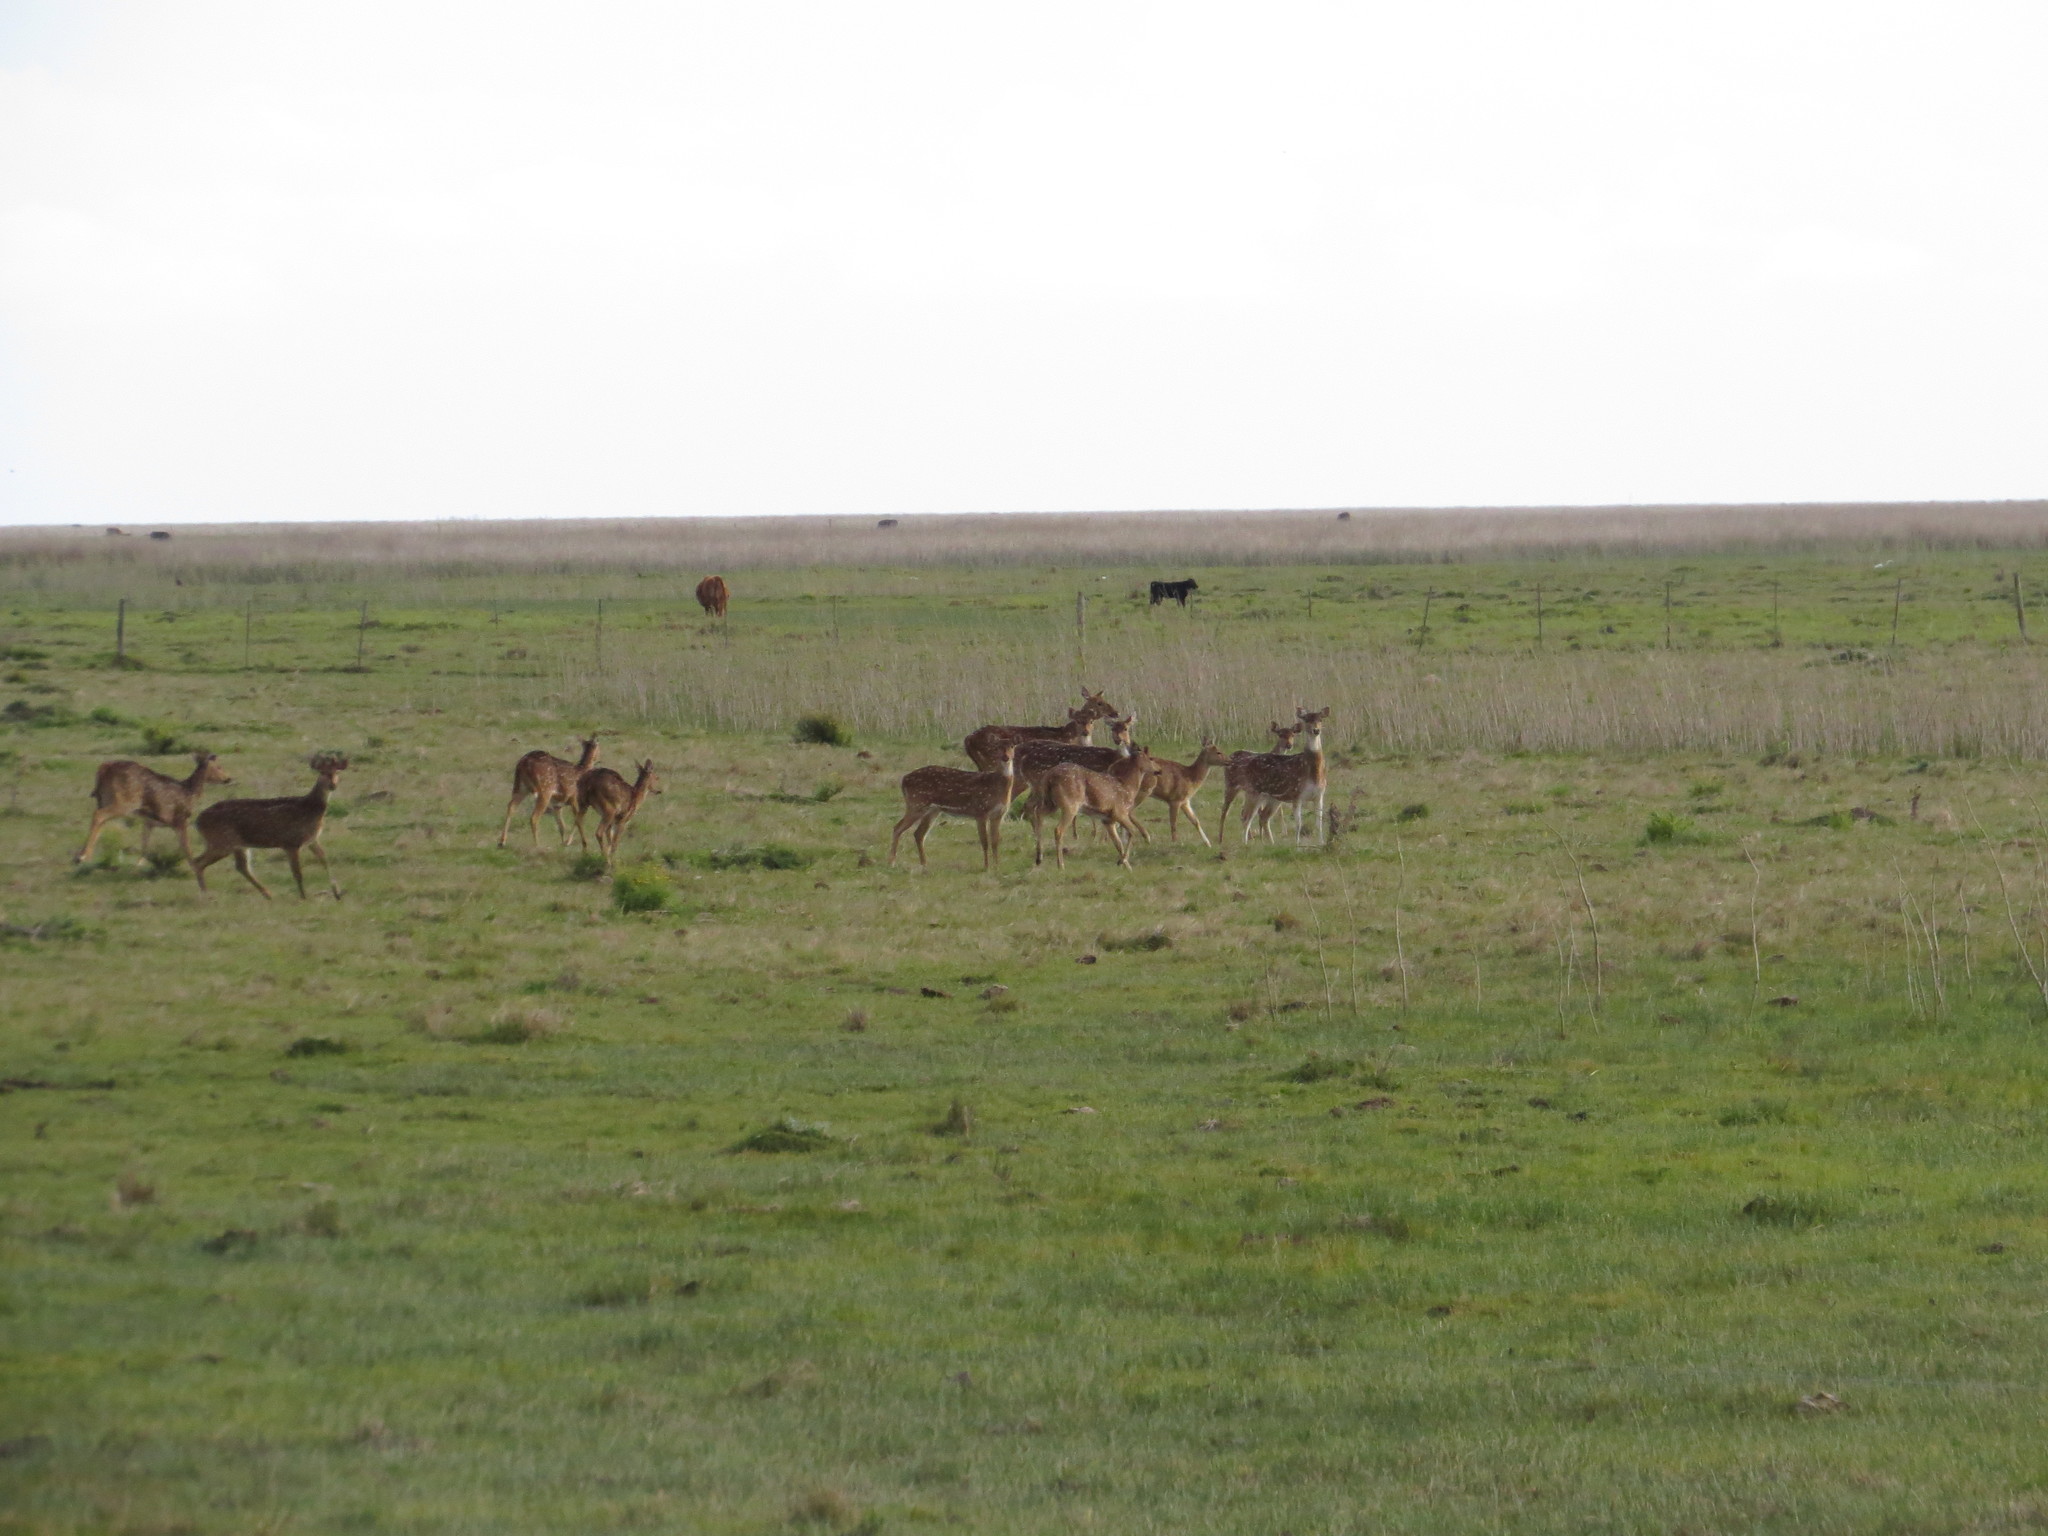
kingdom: Animalia
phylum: Chordata
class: Mammalia
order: Artiodactyla
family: Cervidae
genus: Axis
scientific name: Axis axis
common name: Chital
